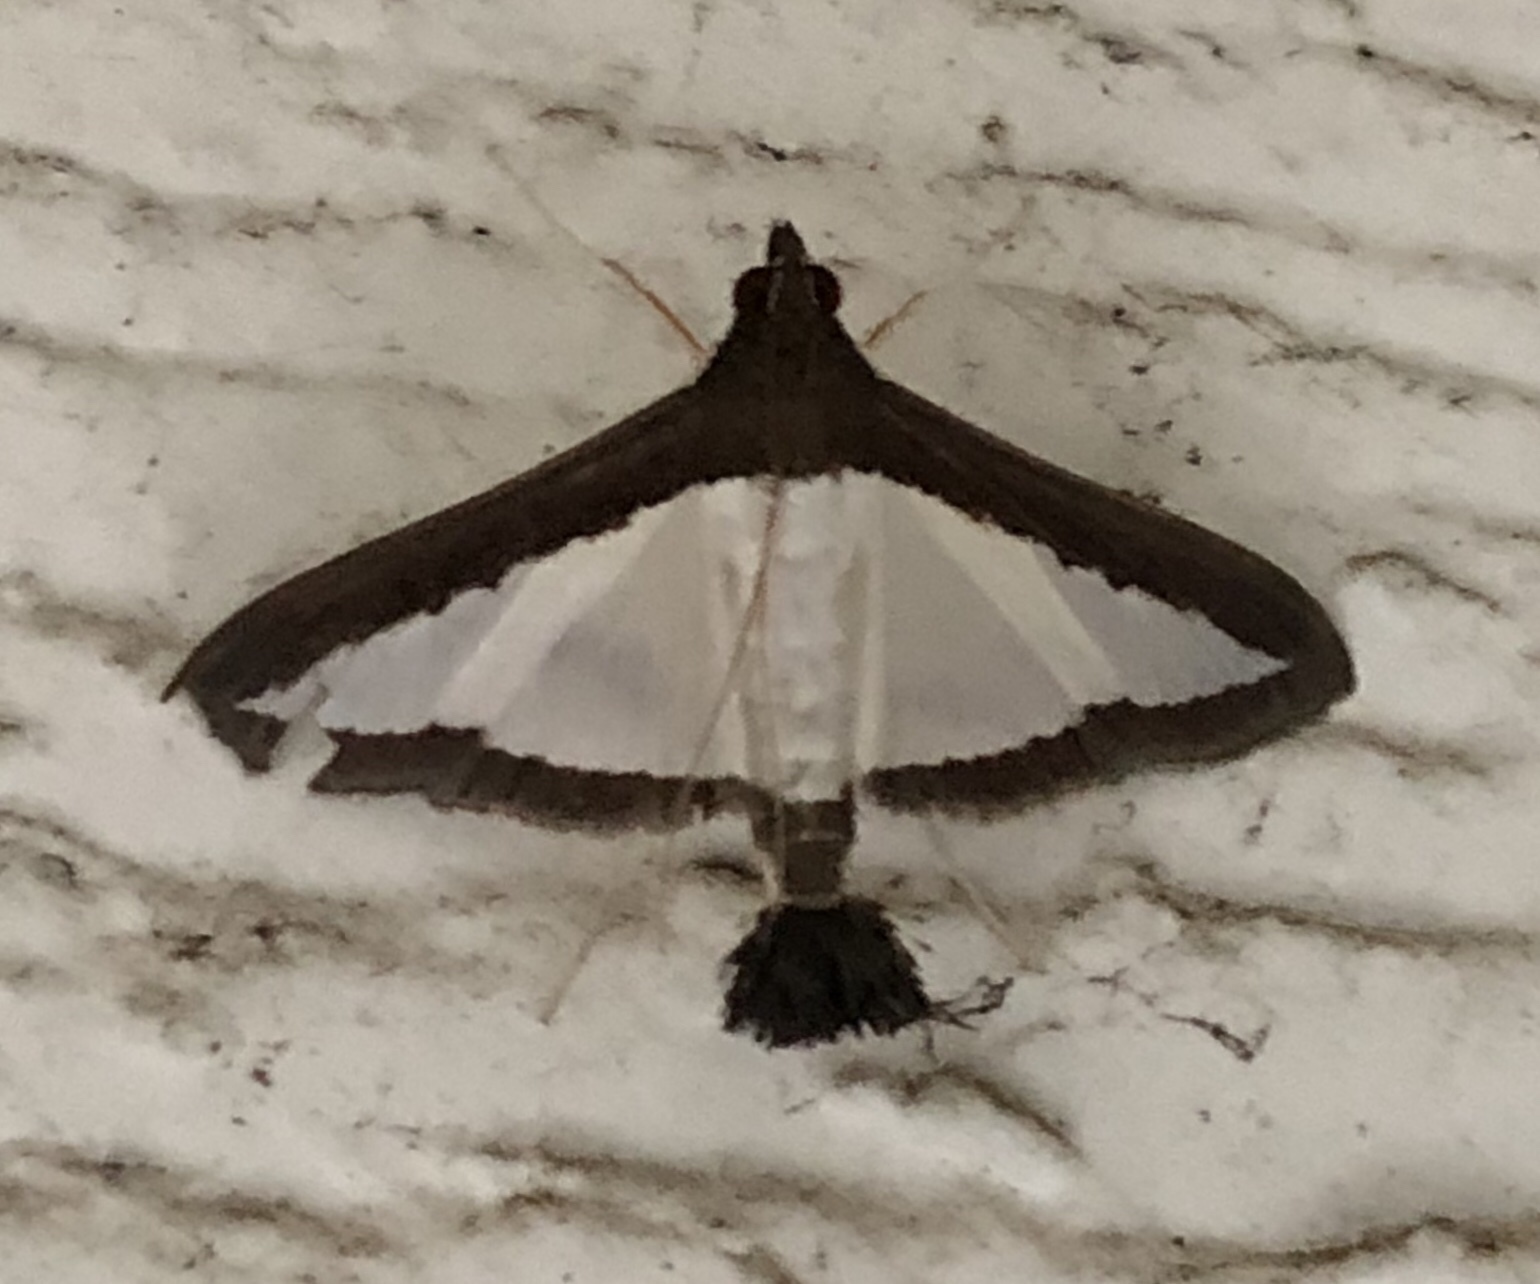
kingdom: Animalia
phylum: Arthropoda
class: Insecta
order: Lepidoptera
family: Crambidae
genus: Diaphania
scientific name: Diaphania hyalinata
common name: Melonworm
